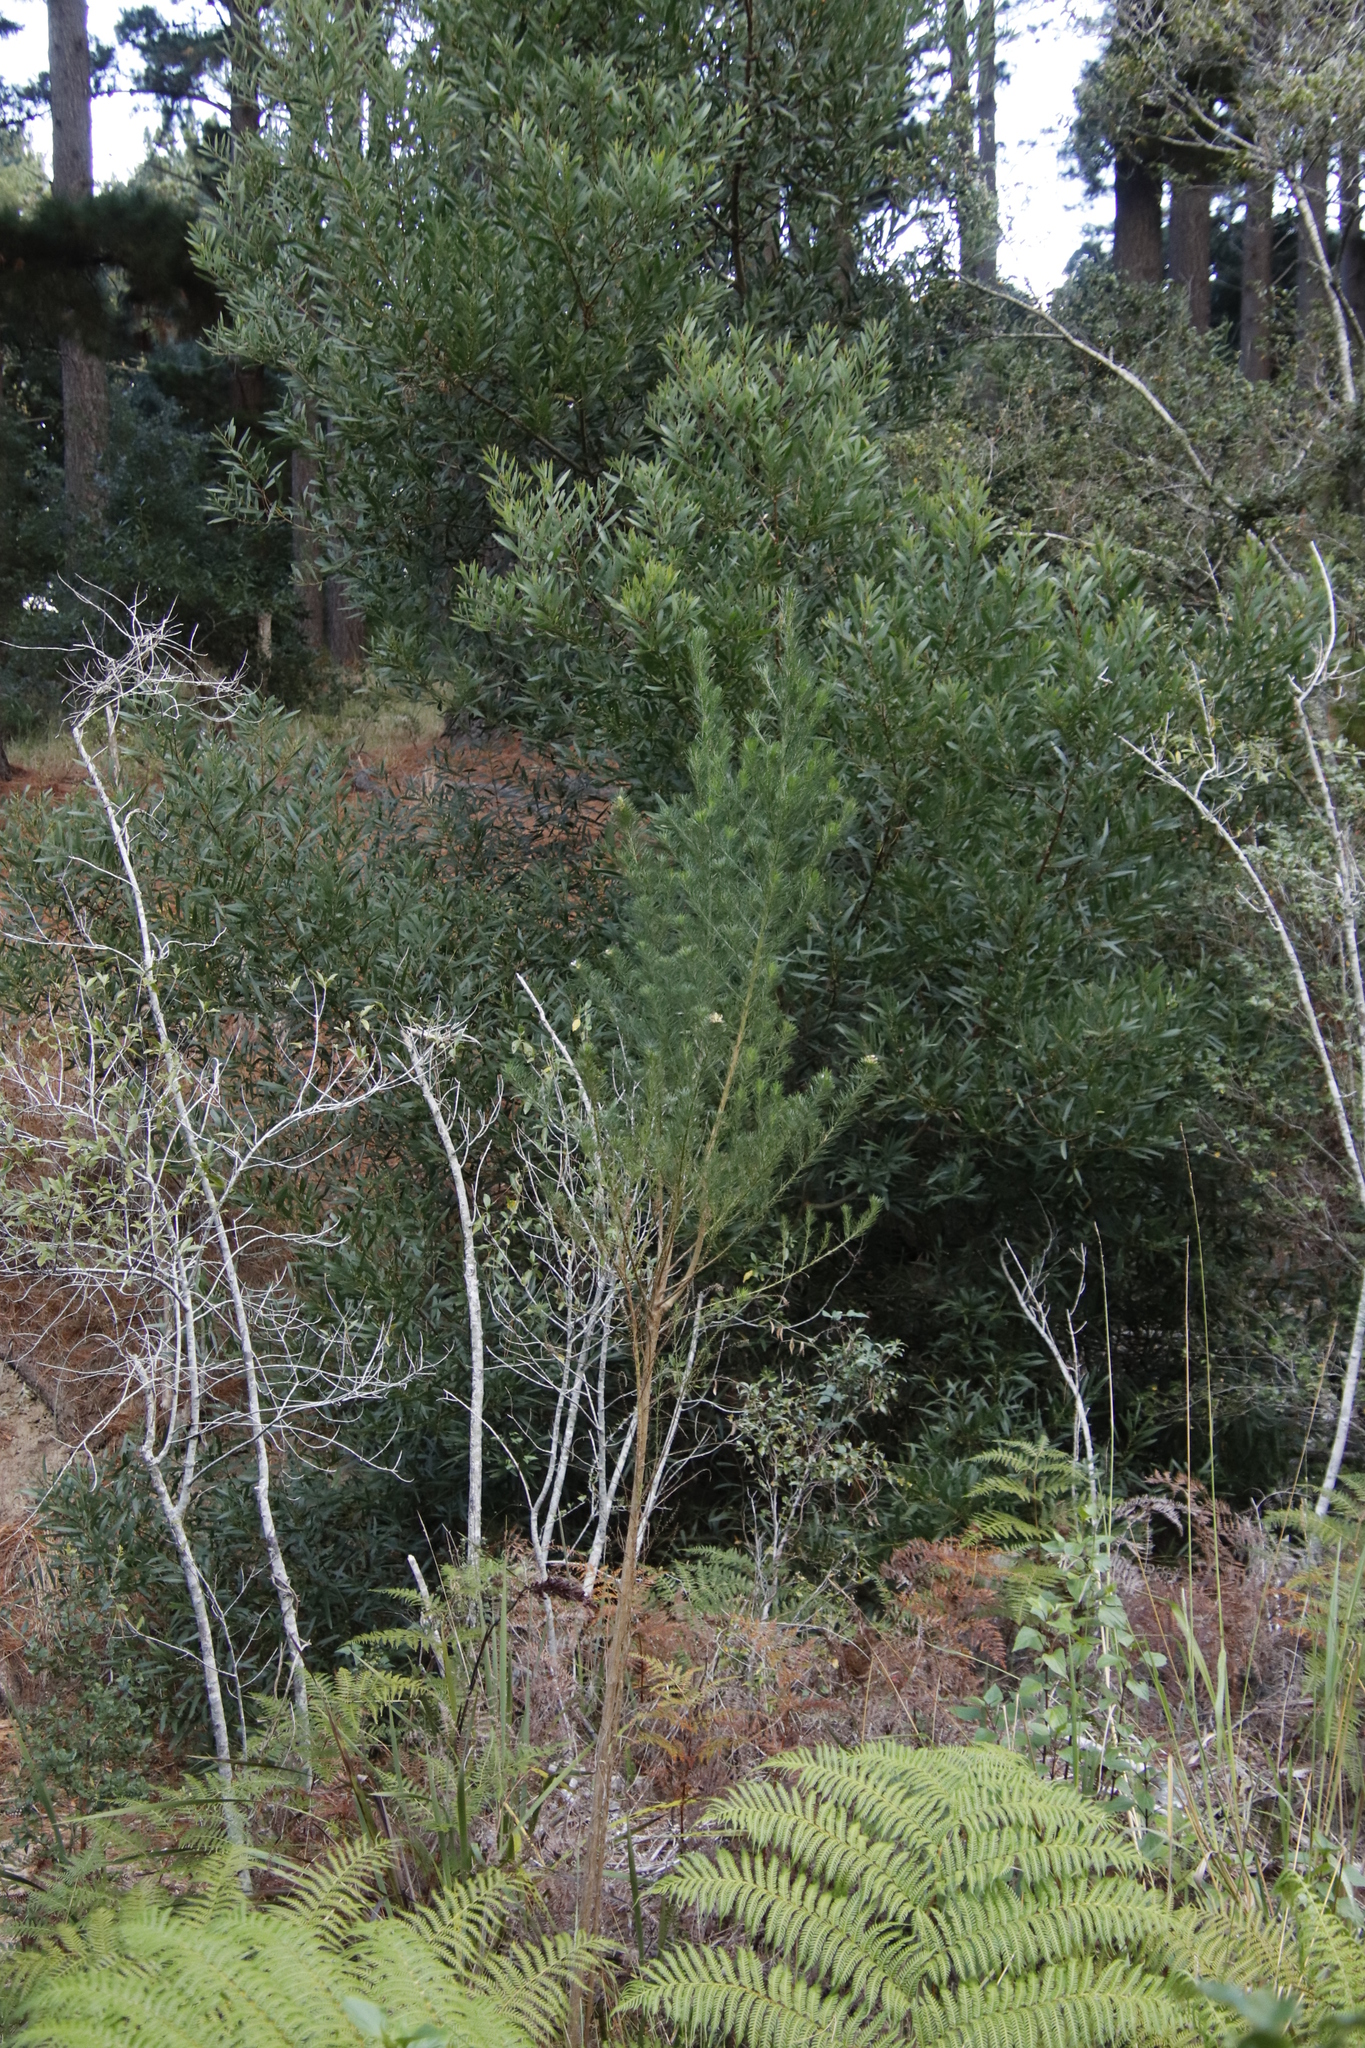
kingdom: Plantae
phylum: Tracheophyta
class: Magnoliopsida
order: Fabales
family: Fabaceae
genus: Psoralea
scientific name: Psoralea pinnata
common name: African scurfpea
